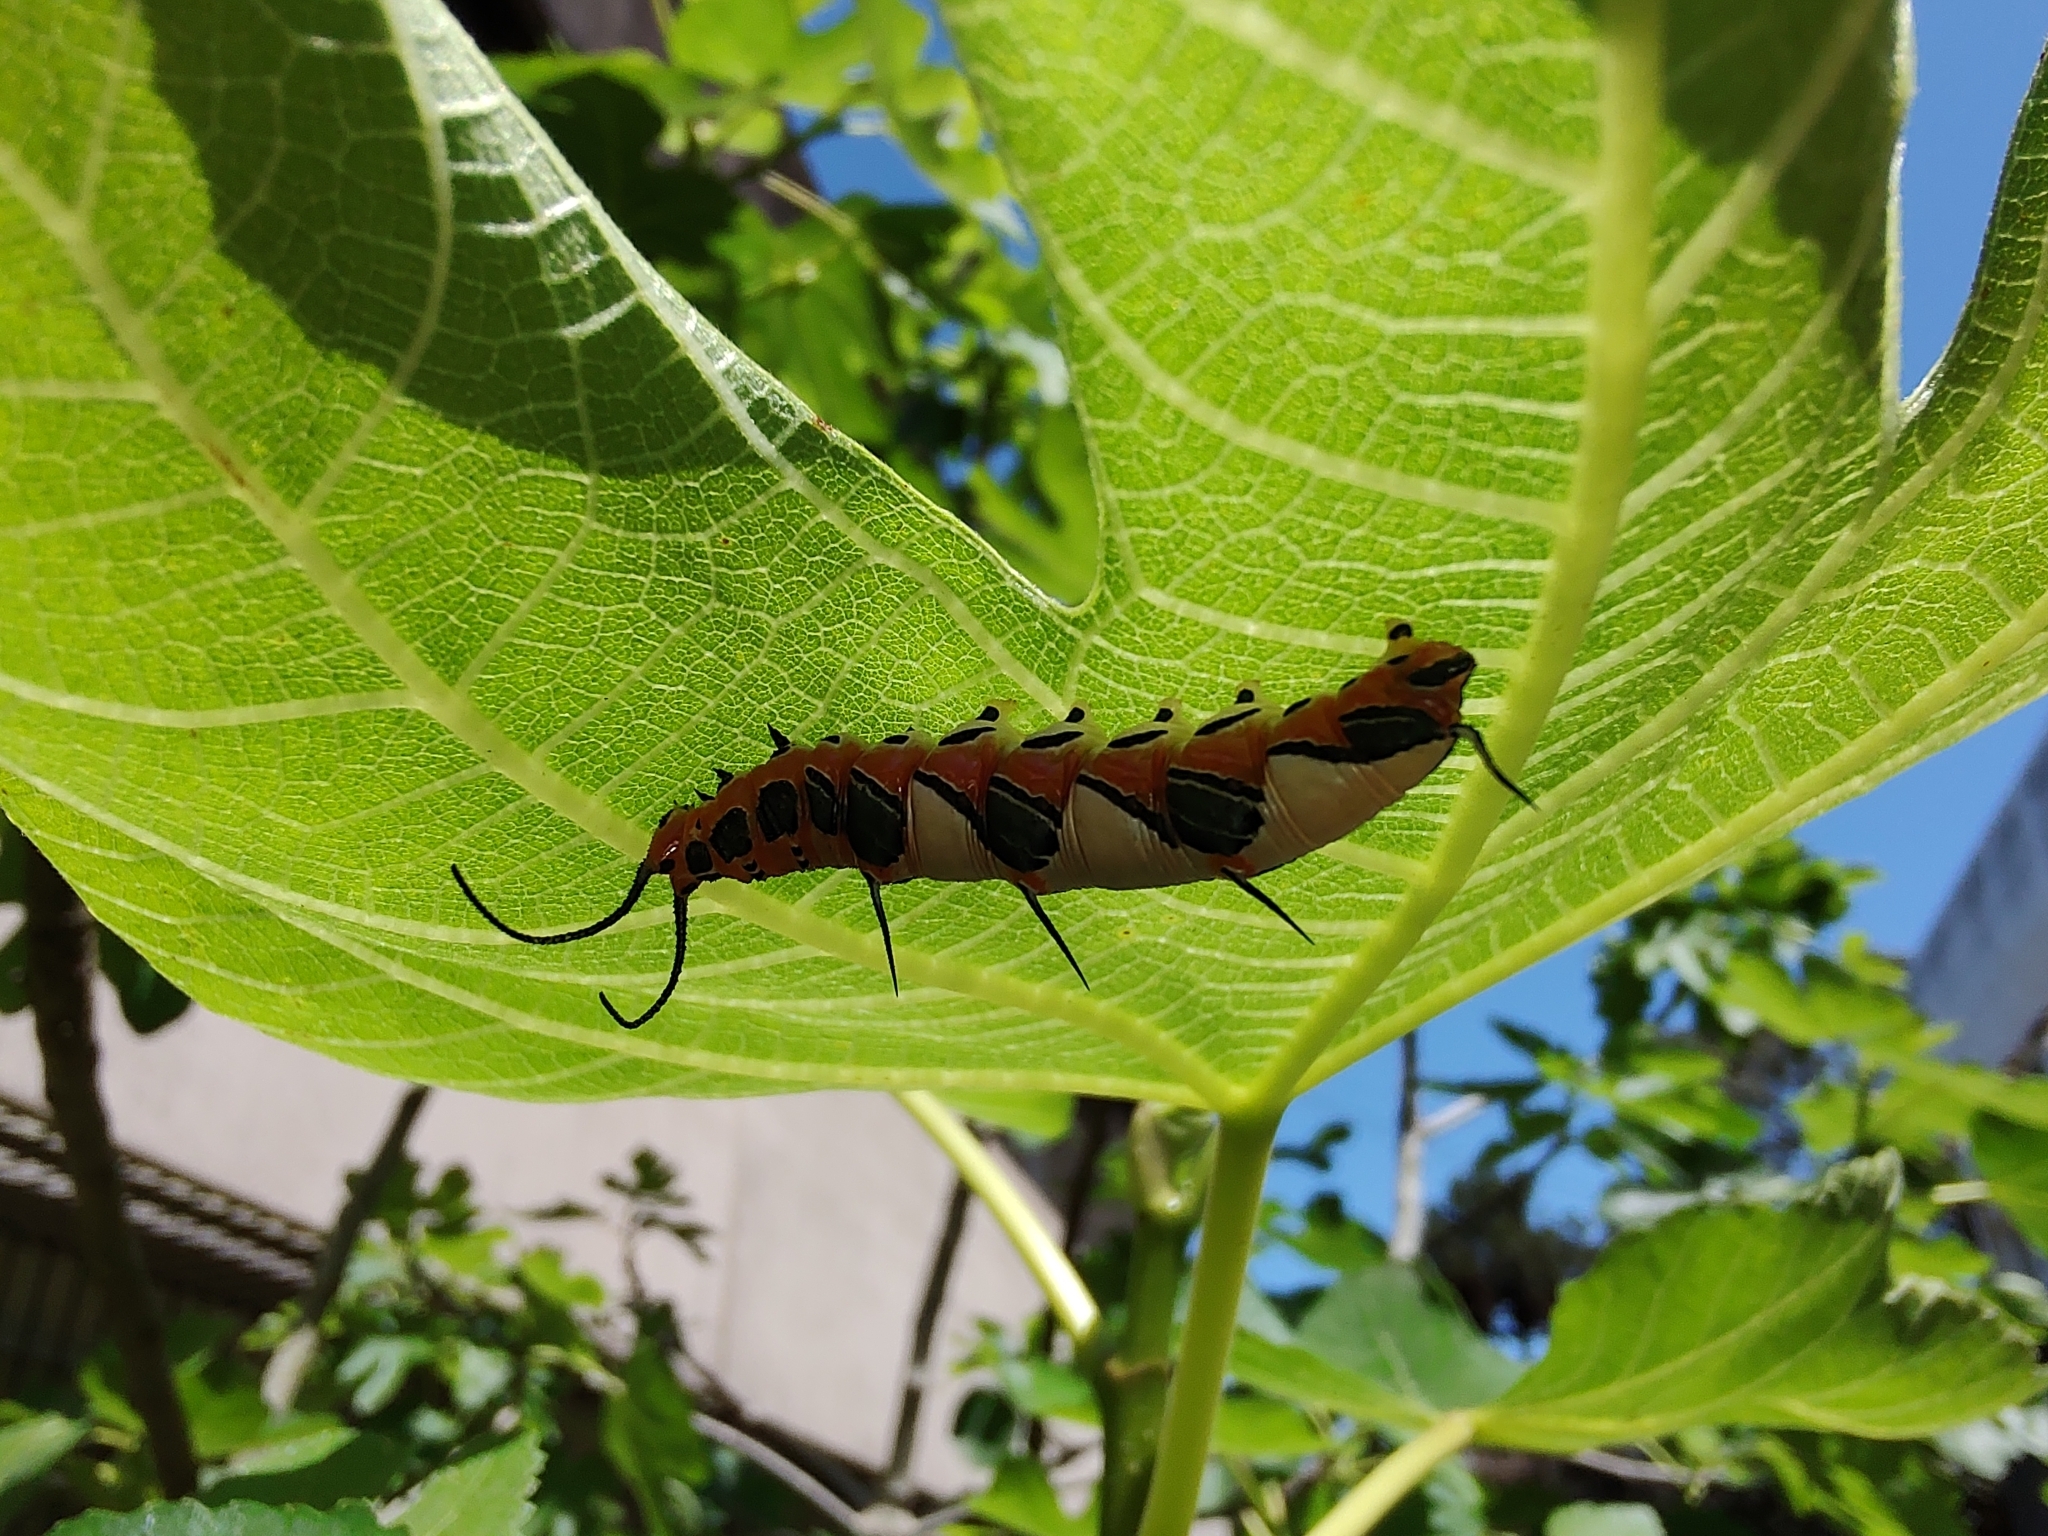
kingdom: Animalia
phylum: Arthropoda
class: Insecta
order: Lepidoptera
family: Nymphalidae
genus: Marpesia
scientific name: Marpesia petreus
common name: Red dagger wing
